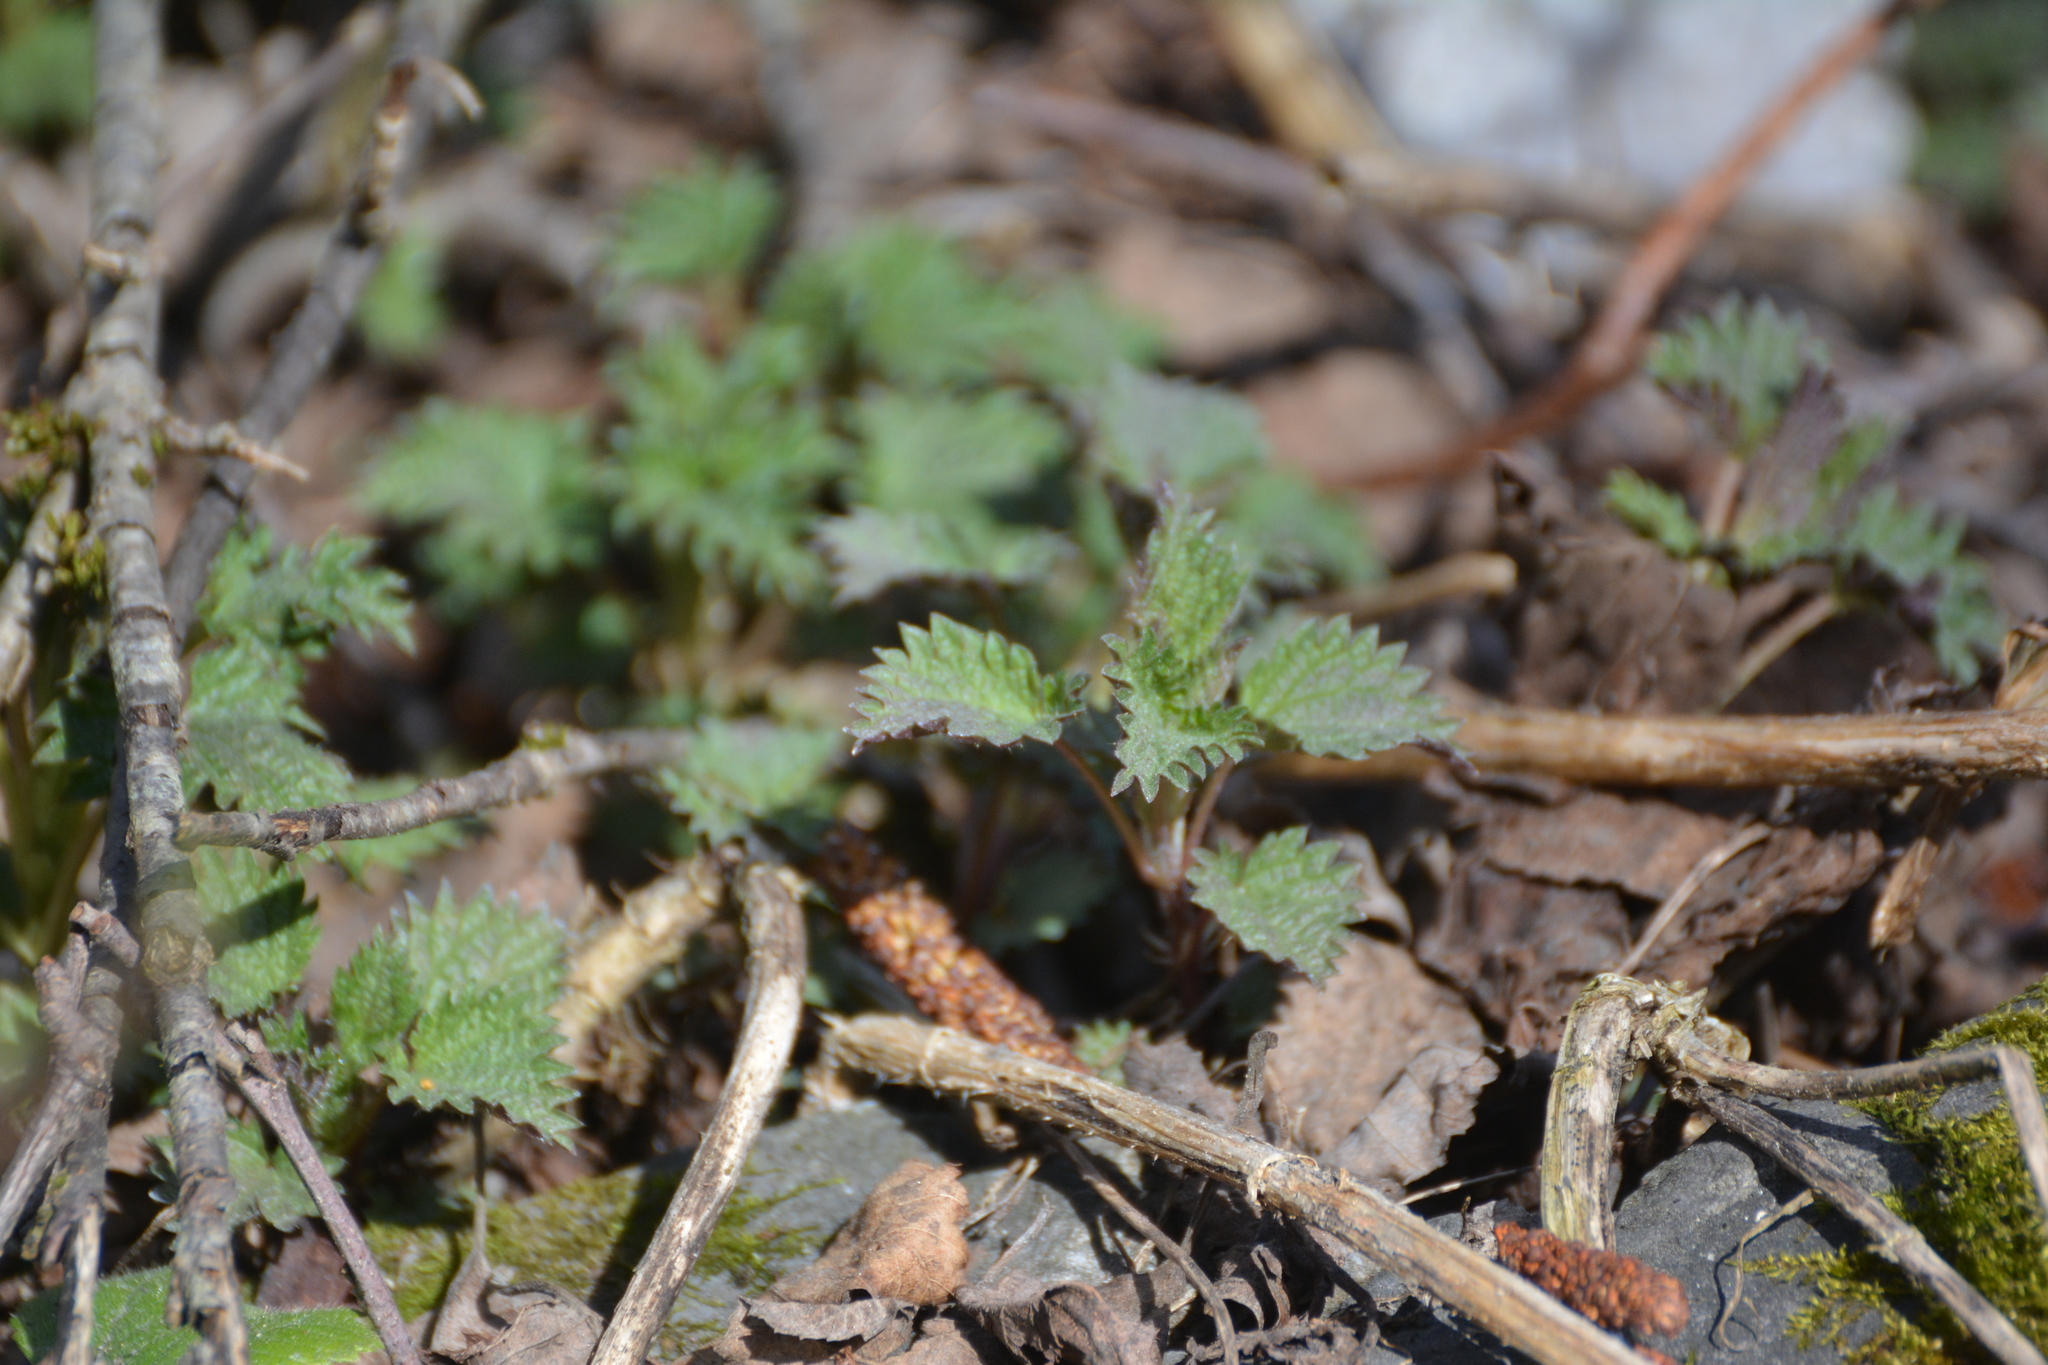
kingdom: Plantae
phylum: Tracheophyta
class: Magnoliopsida
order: Rosales
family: Urticaceae
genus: Urtica
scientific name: Urtica dioica
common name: Common nettle
